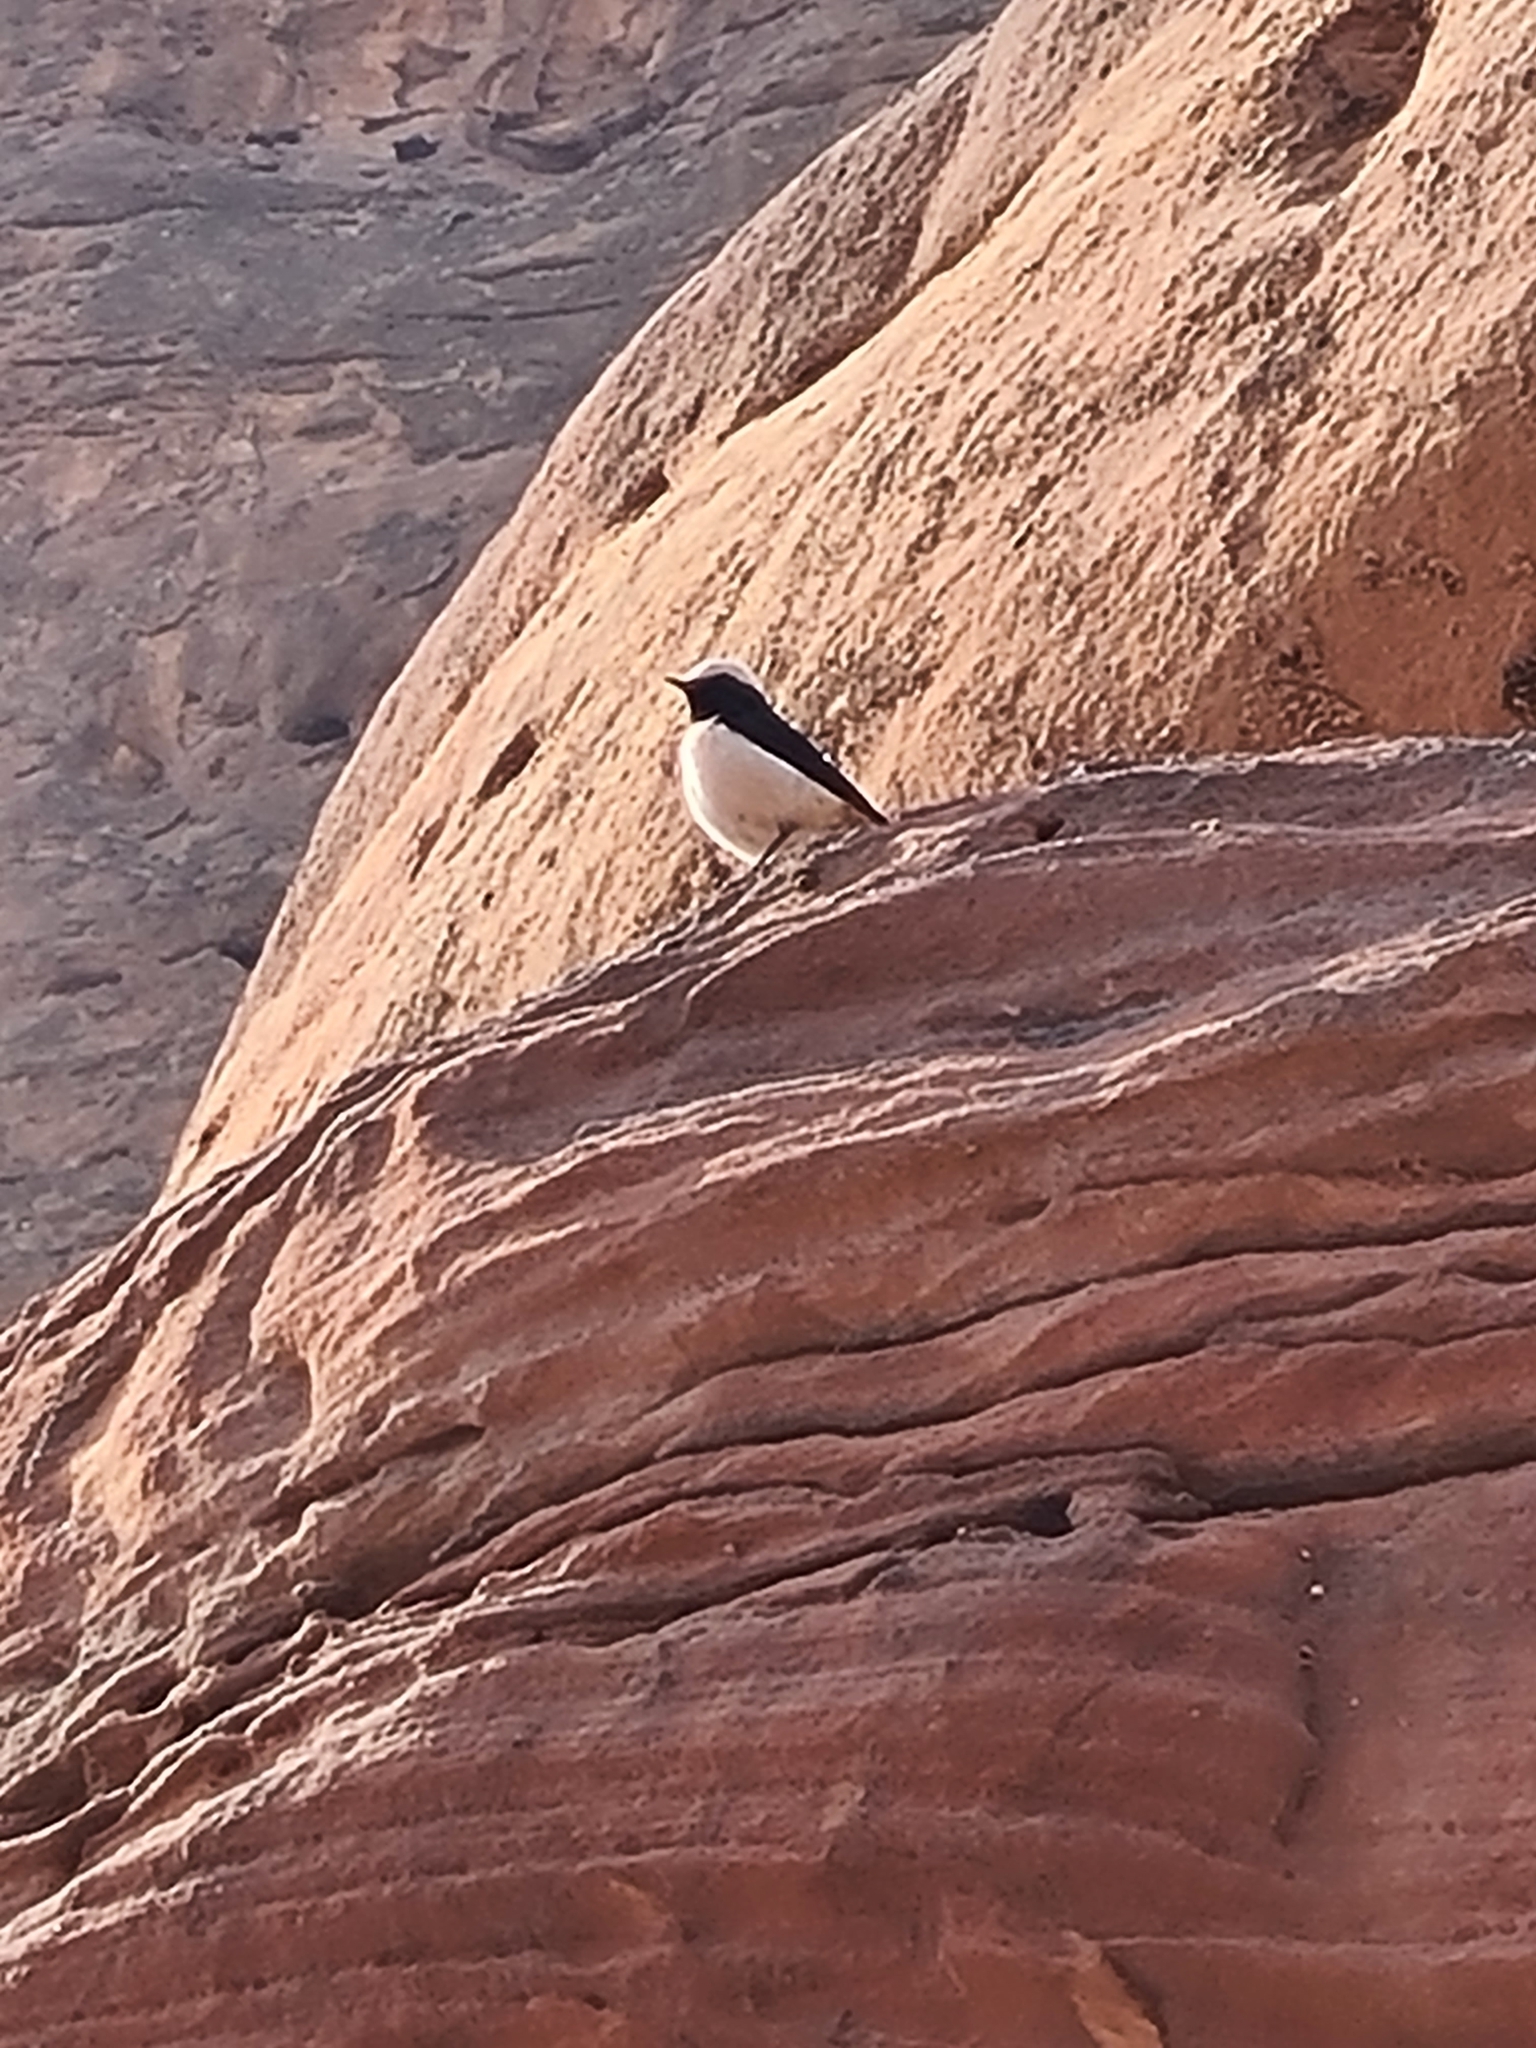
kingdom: Animalia
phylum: Chordata
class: Aves
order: Passeriformes
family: Muscicapidae
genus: Oenanthe
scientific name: Oenanthe lugens
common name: Mourning wheatear
